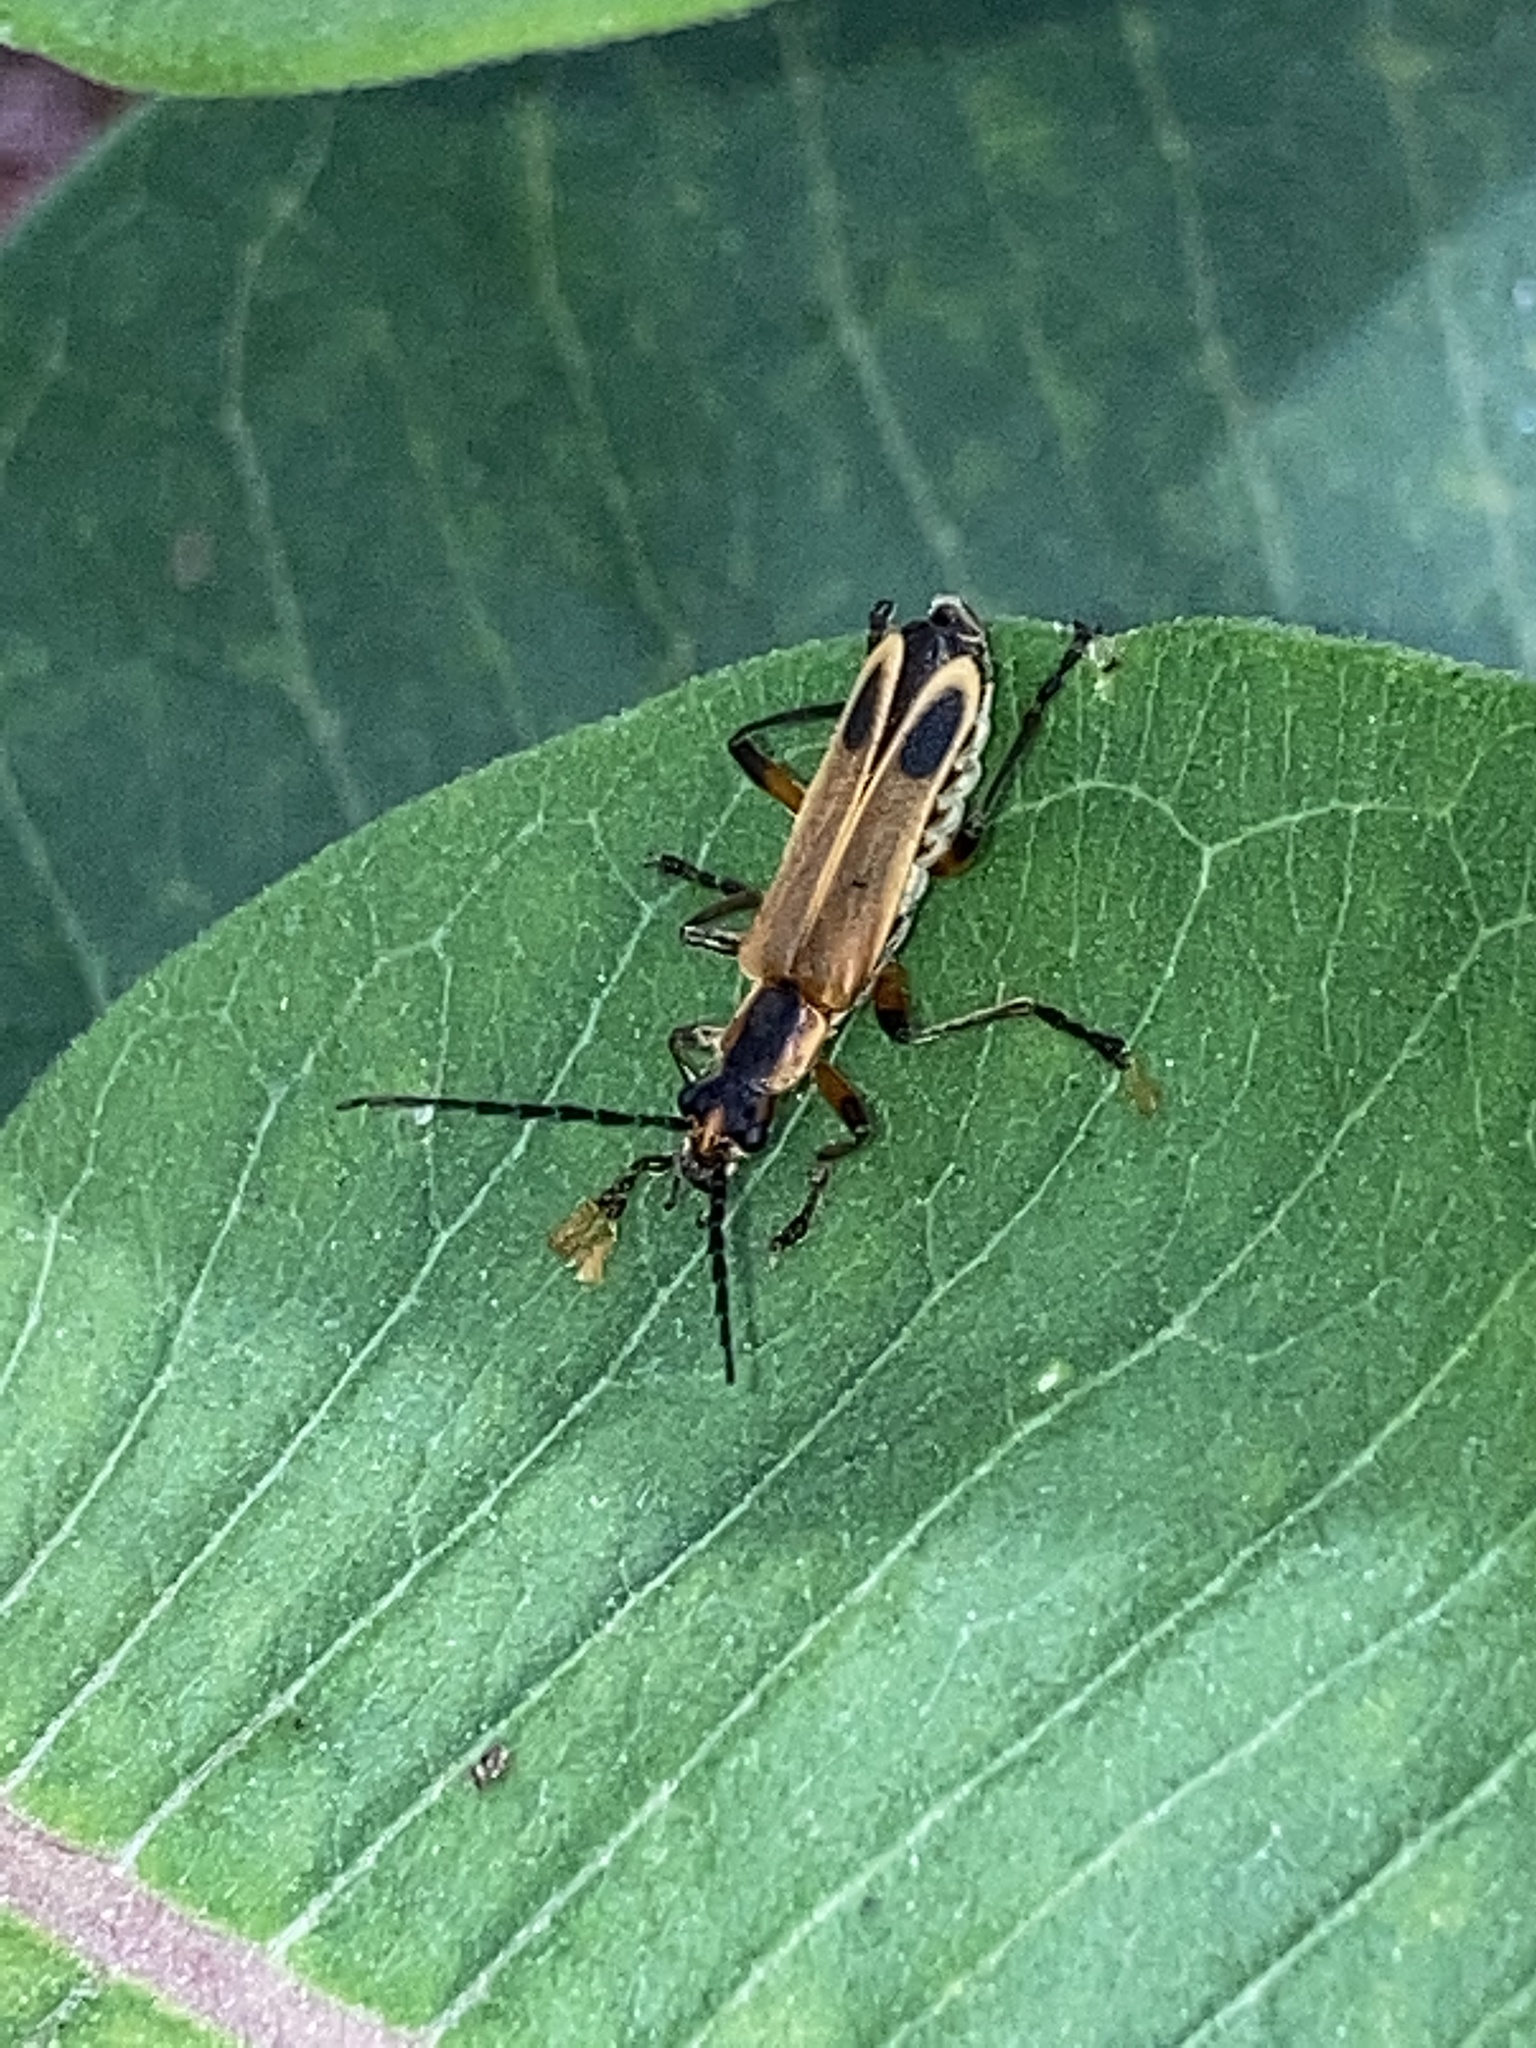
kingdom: Animalia
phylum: Arthropoda
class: Insecta
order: Coleoptera
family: Cantharidae
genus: Chauliognathus
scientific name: Chauliognathus marginatus
